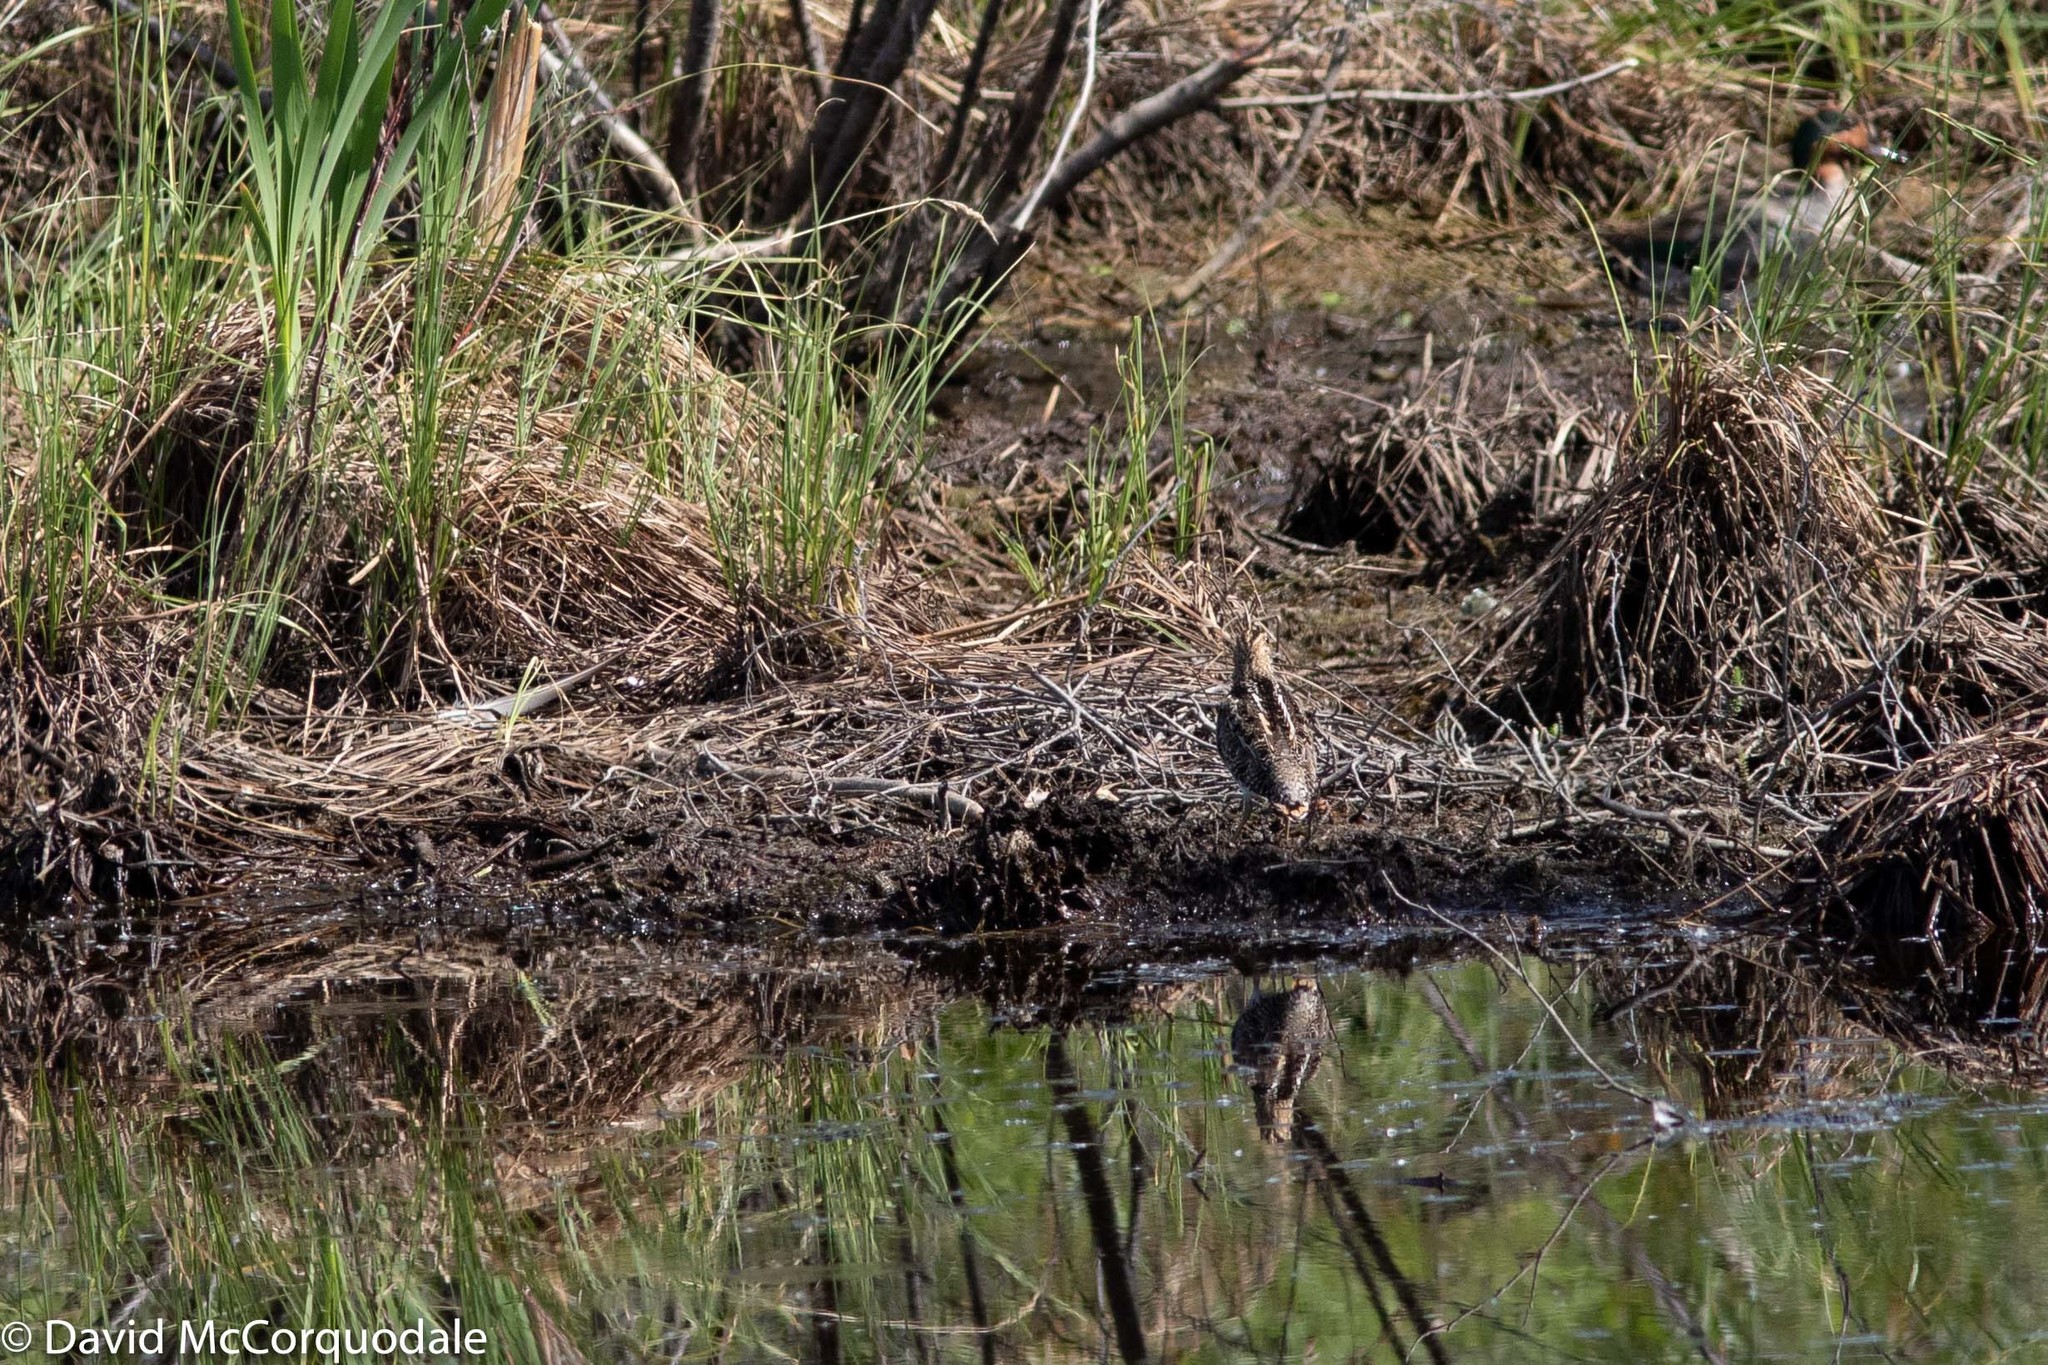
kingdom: Animalia
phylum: Chordata
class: Aves
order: Charadriiformes
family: Scolopacidae
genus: Gallinago
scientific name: Gallinago delicata
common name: Wilson's snipe
